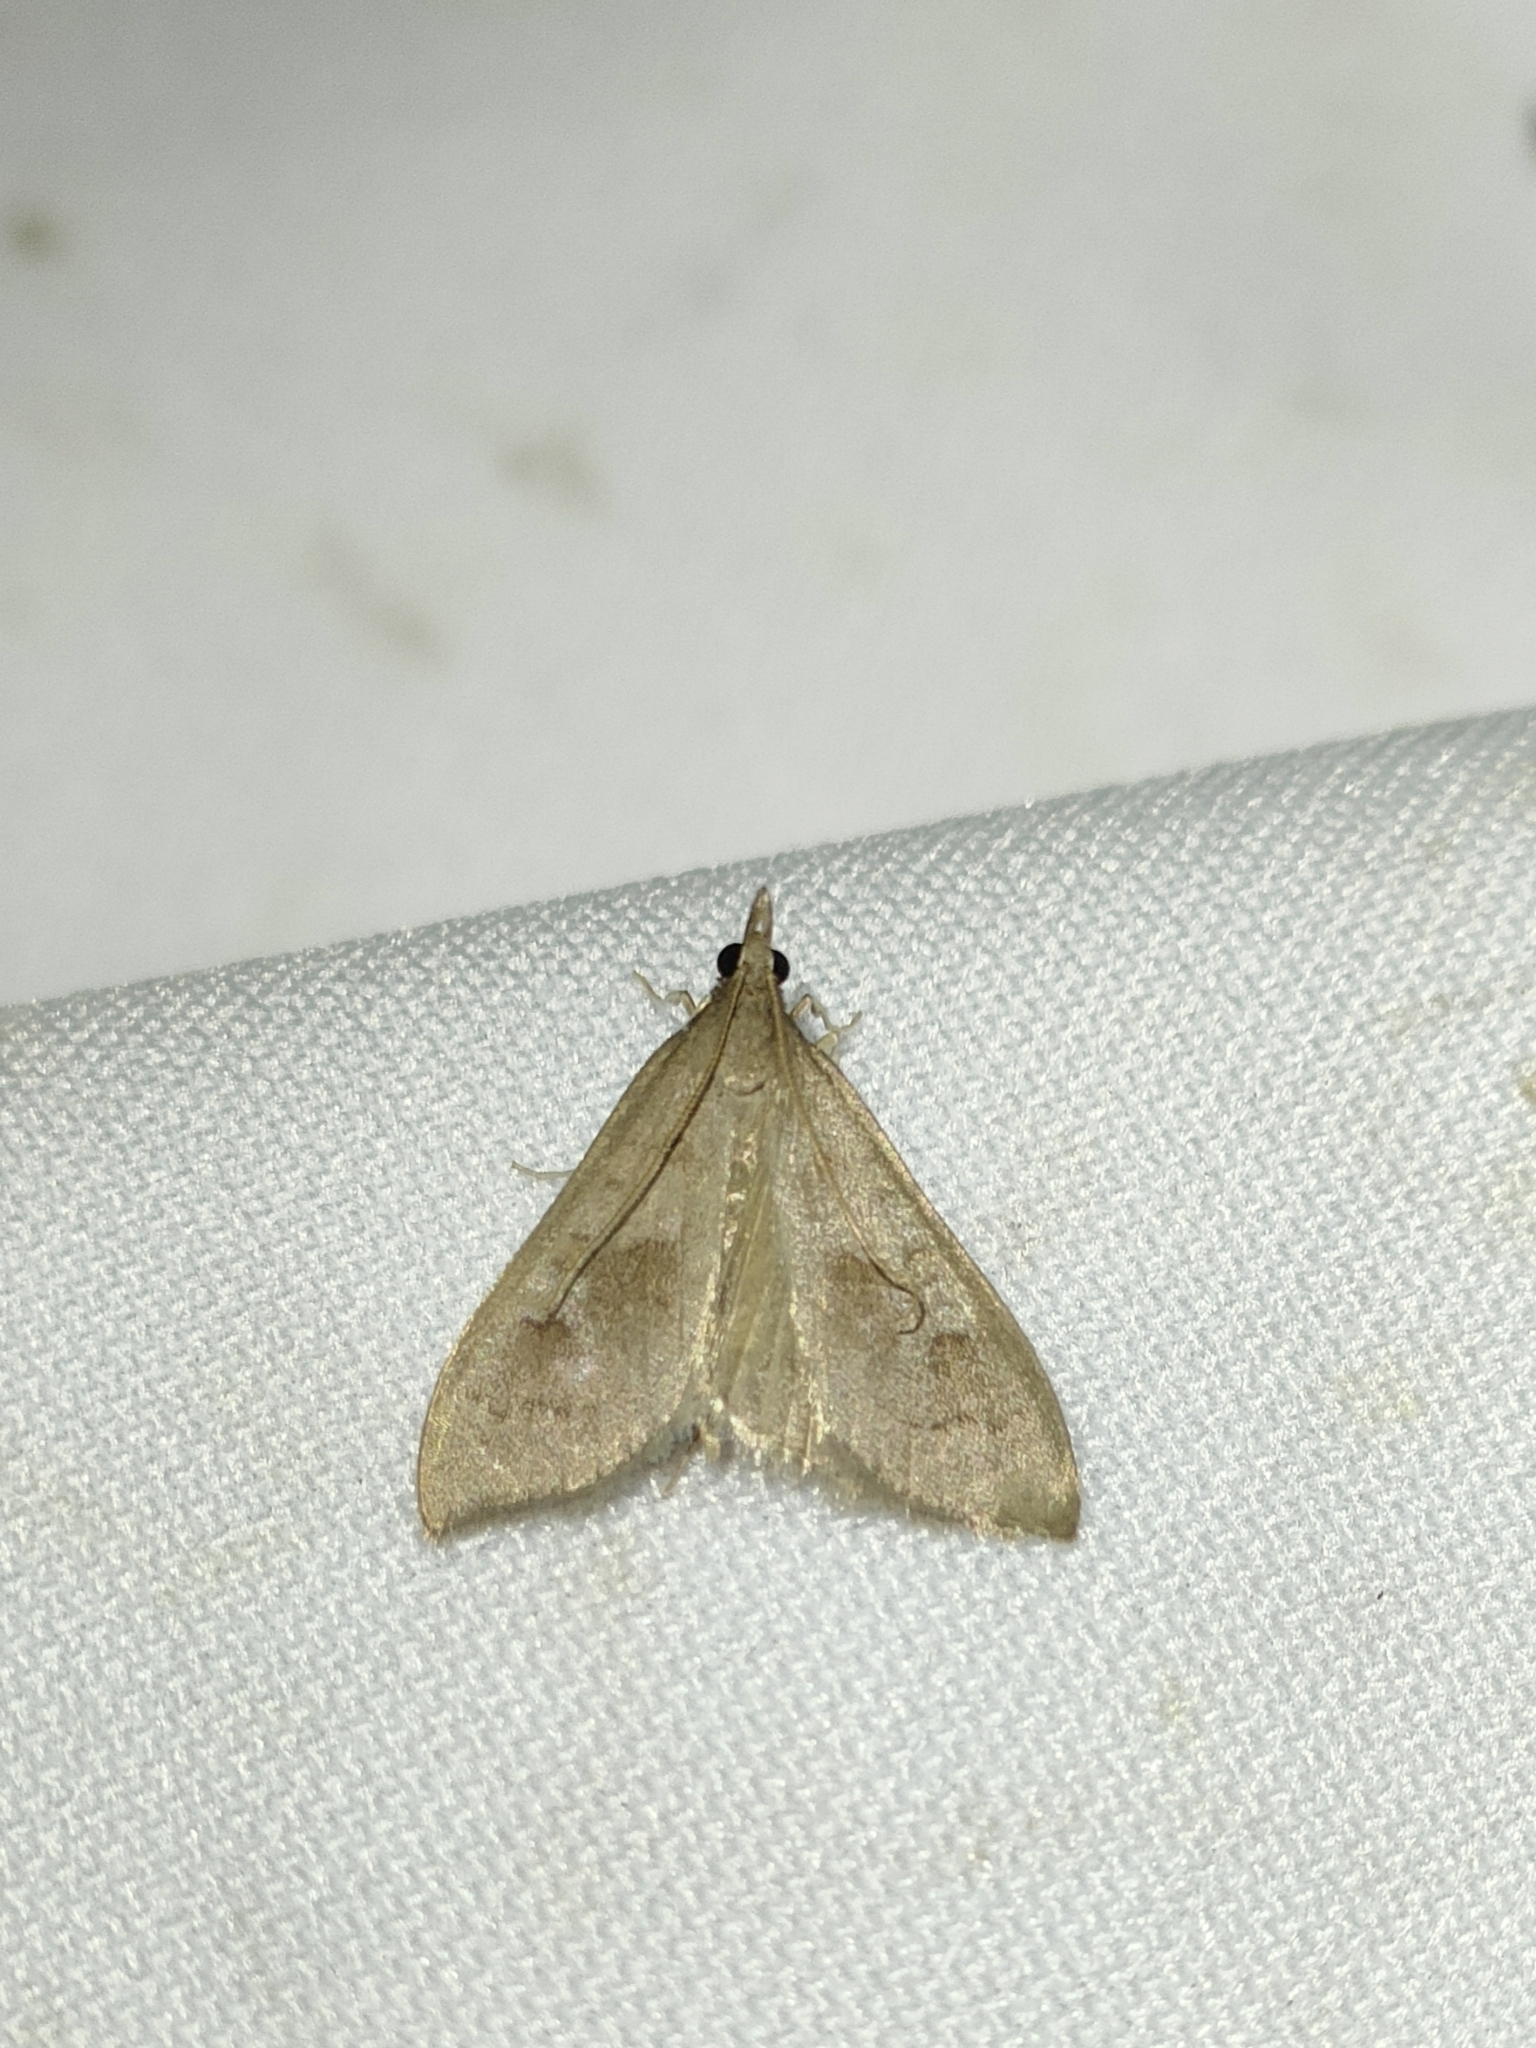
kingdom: Animalia
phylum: Arthropoda
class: Insecta
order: Lepidoptera
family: Crambidae
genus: Mecyna
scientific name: Mecyna asinalis
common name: Coastal pearl
